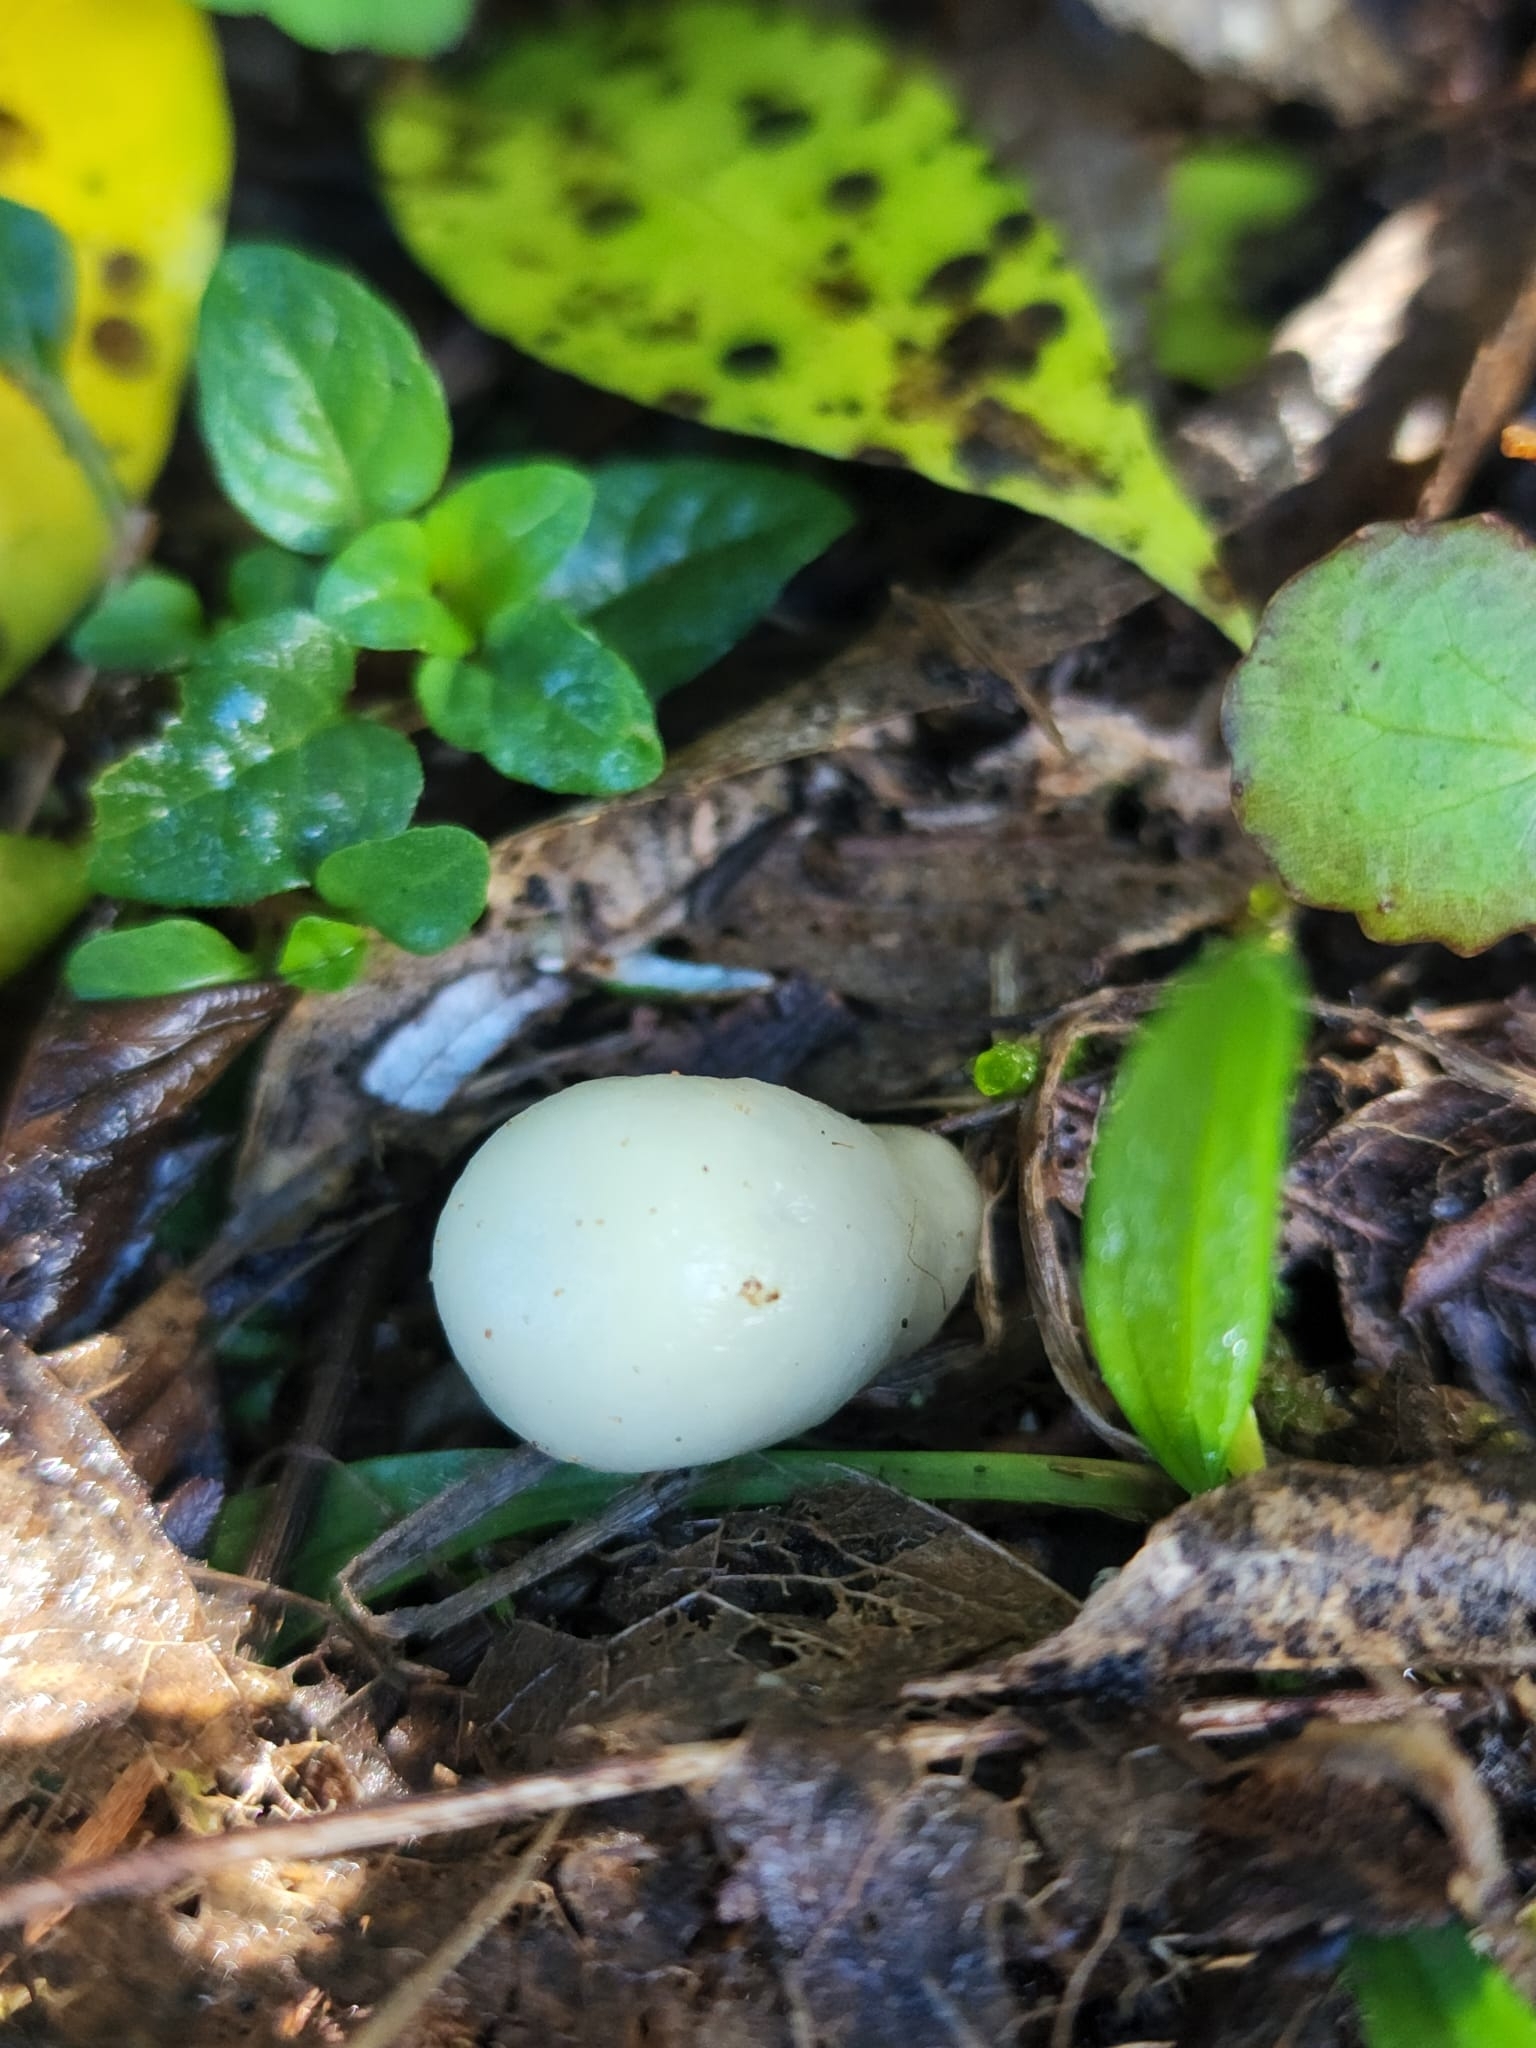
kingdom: Fungi
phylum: Basidiomycota
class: Agaricomycetes
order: Agaricales
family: Hymenogastraceae
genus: Psilocybe
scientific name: Psilocybe weraroa
